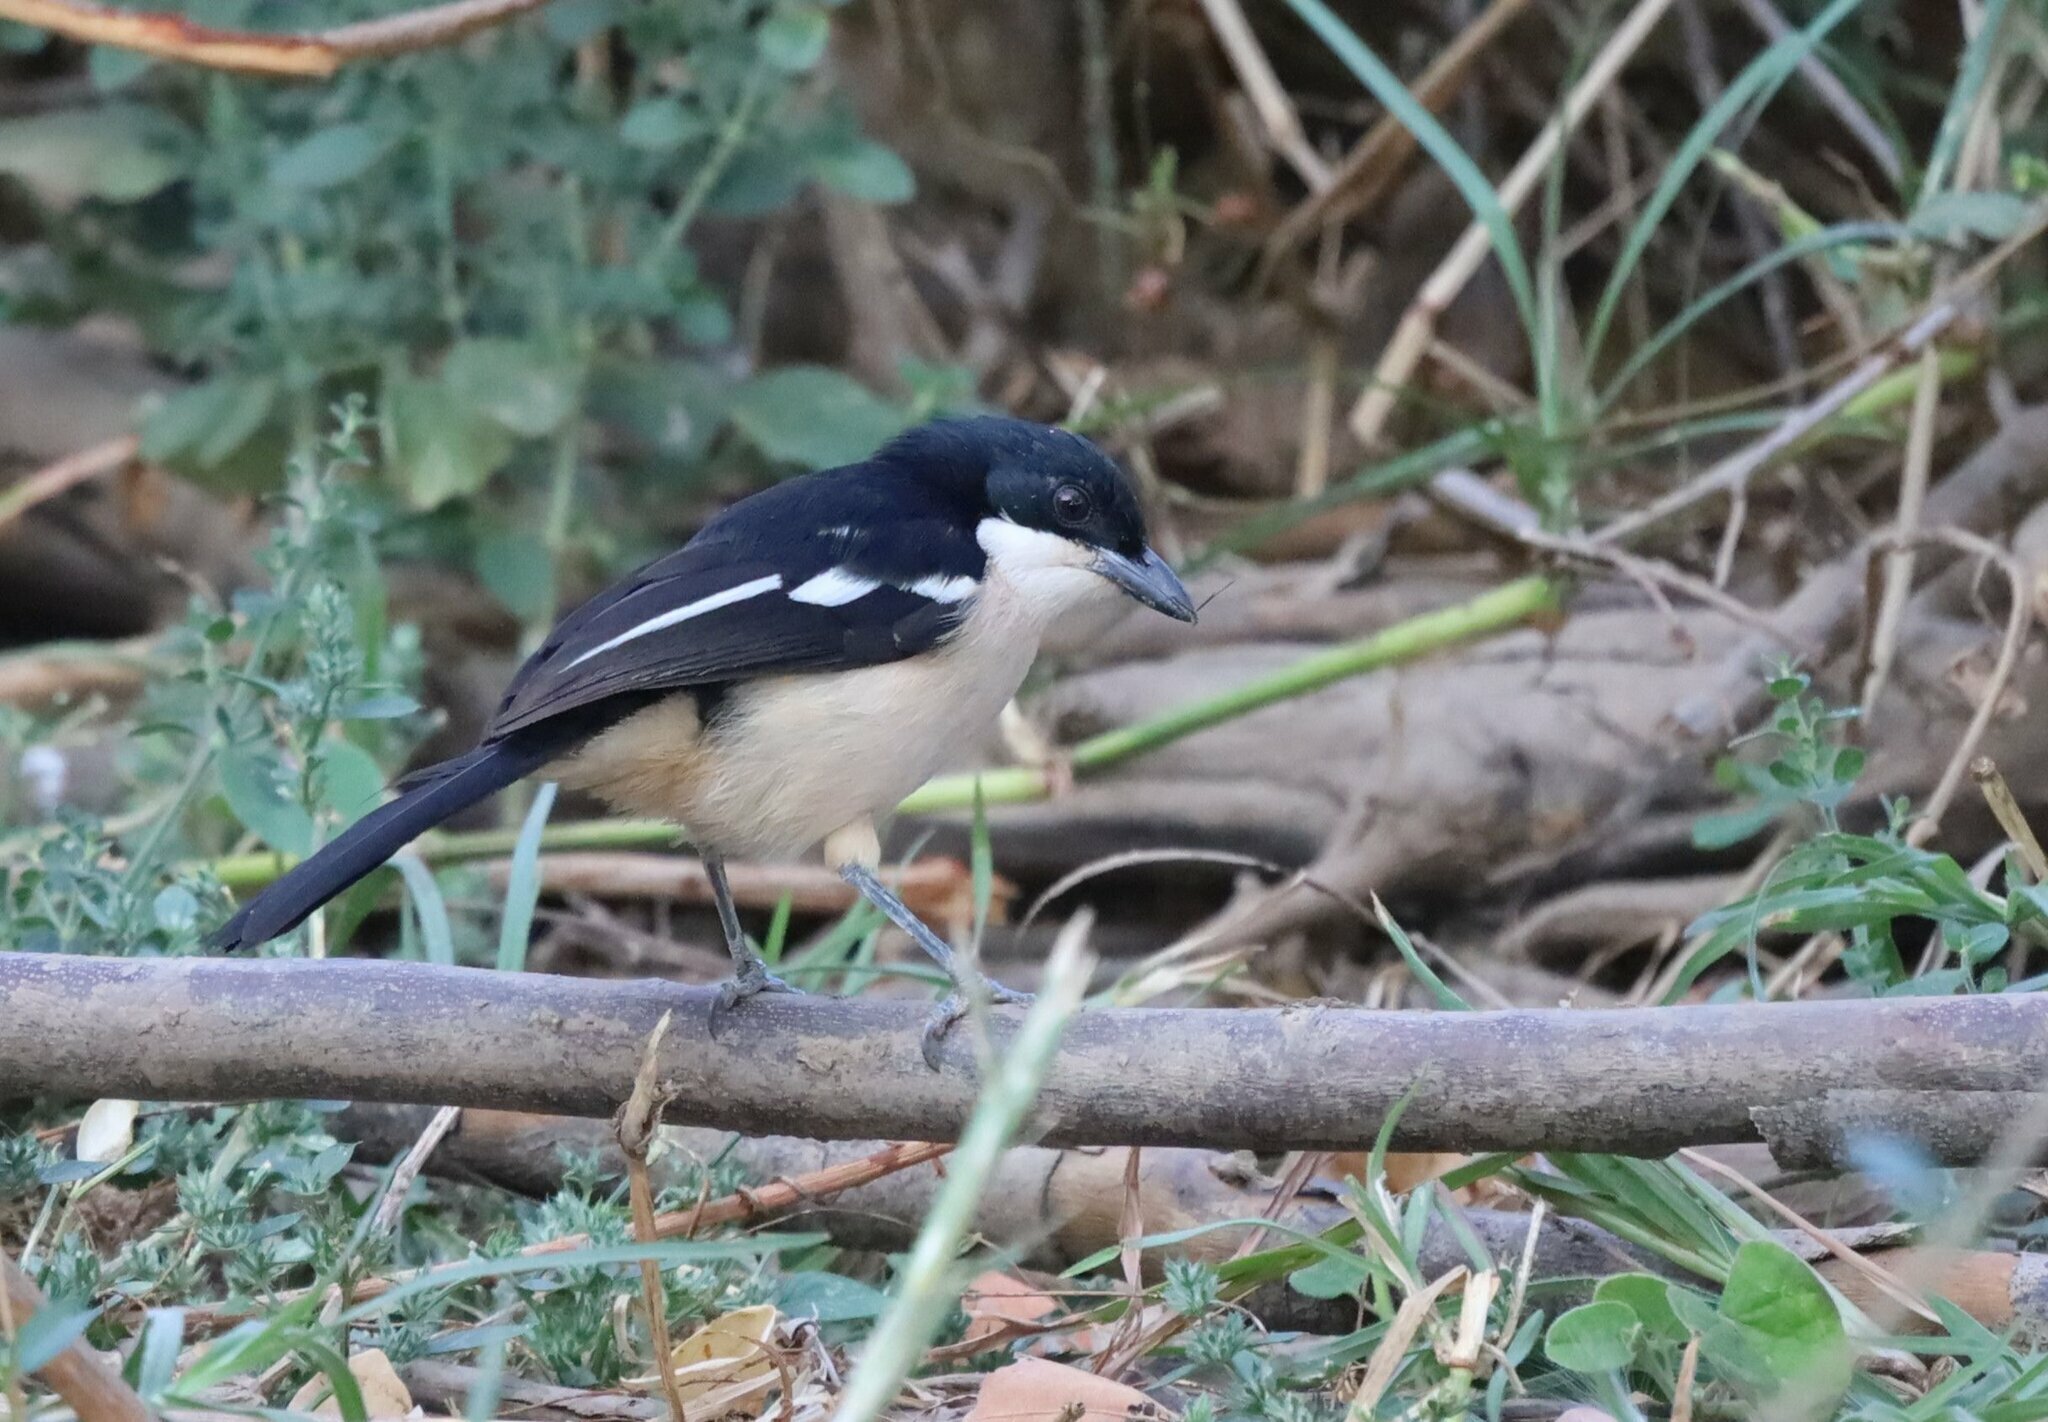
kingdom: Animalia
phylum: Chordata
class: Aves
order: Passeriformes
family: Malaconotidae
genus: Laniarius
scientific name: Laniarius major
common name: Tropical boubou
